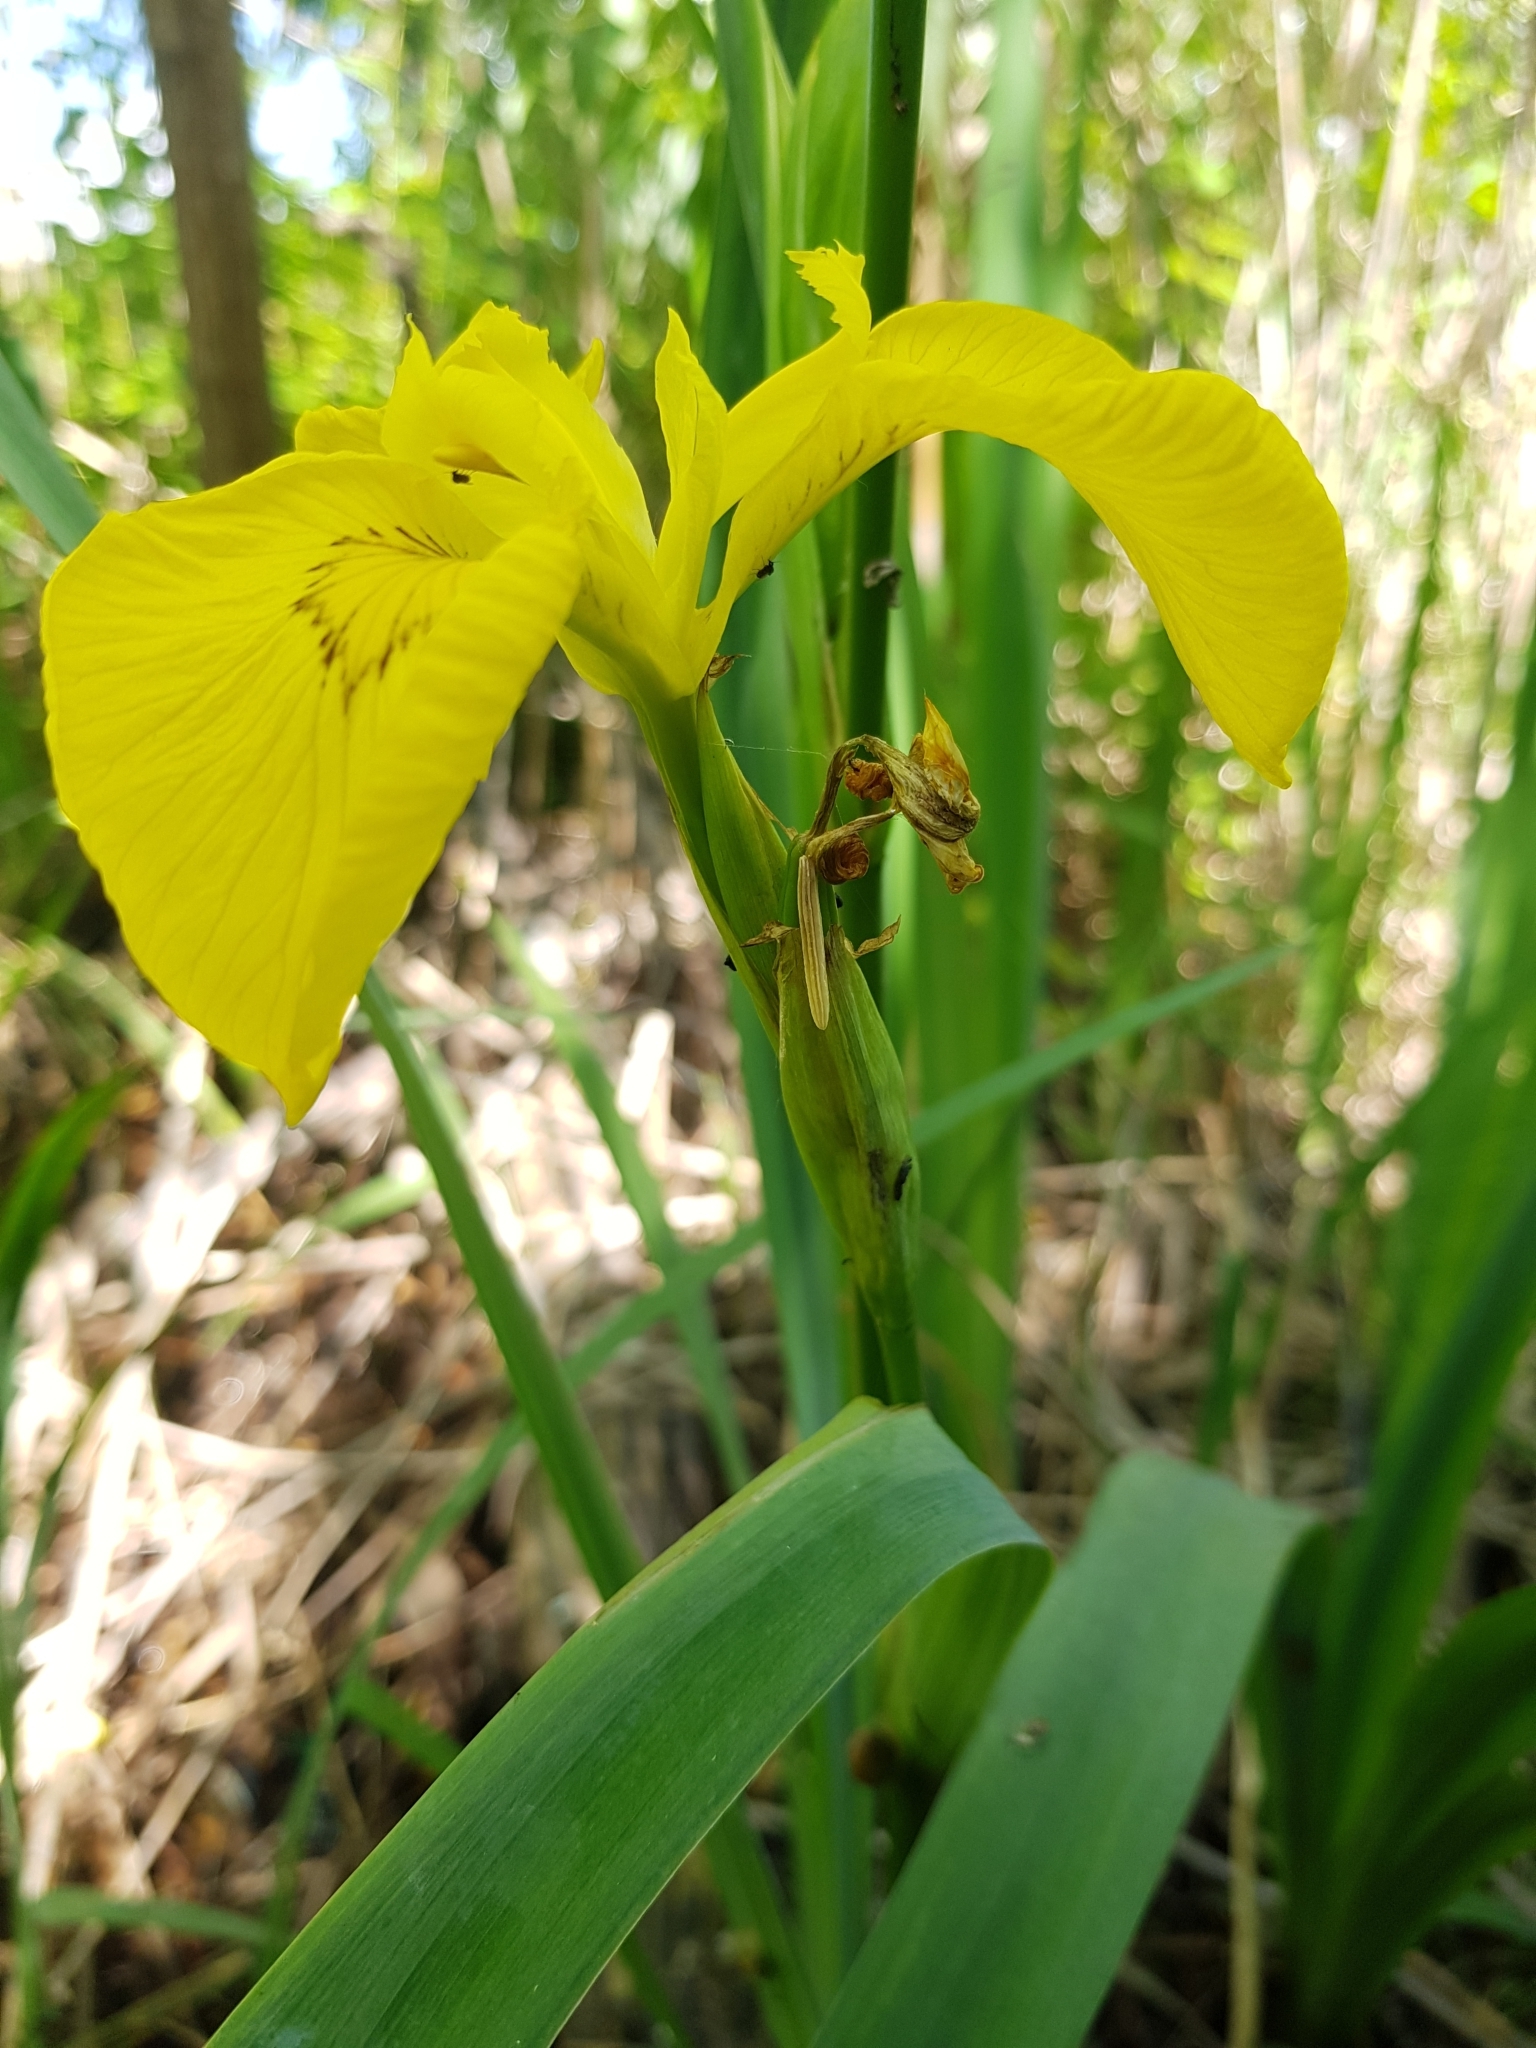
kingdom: Plantae
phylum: Tracheophyta
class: Liliopsida
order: Asparagales
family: Iridaceae
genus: Iris
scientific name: Iris pseudacorus
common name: Yellow flag
